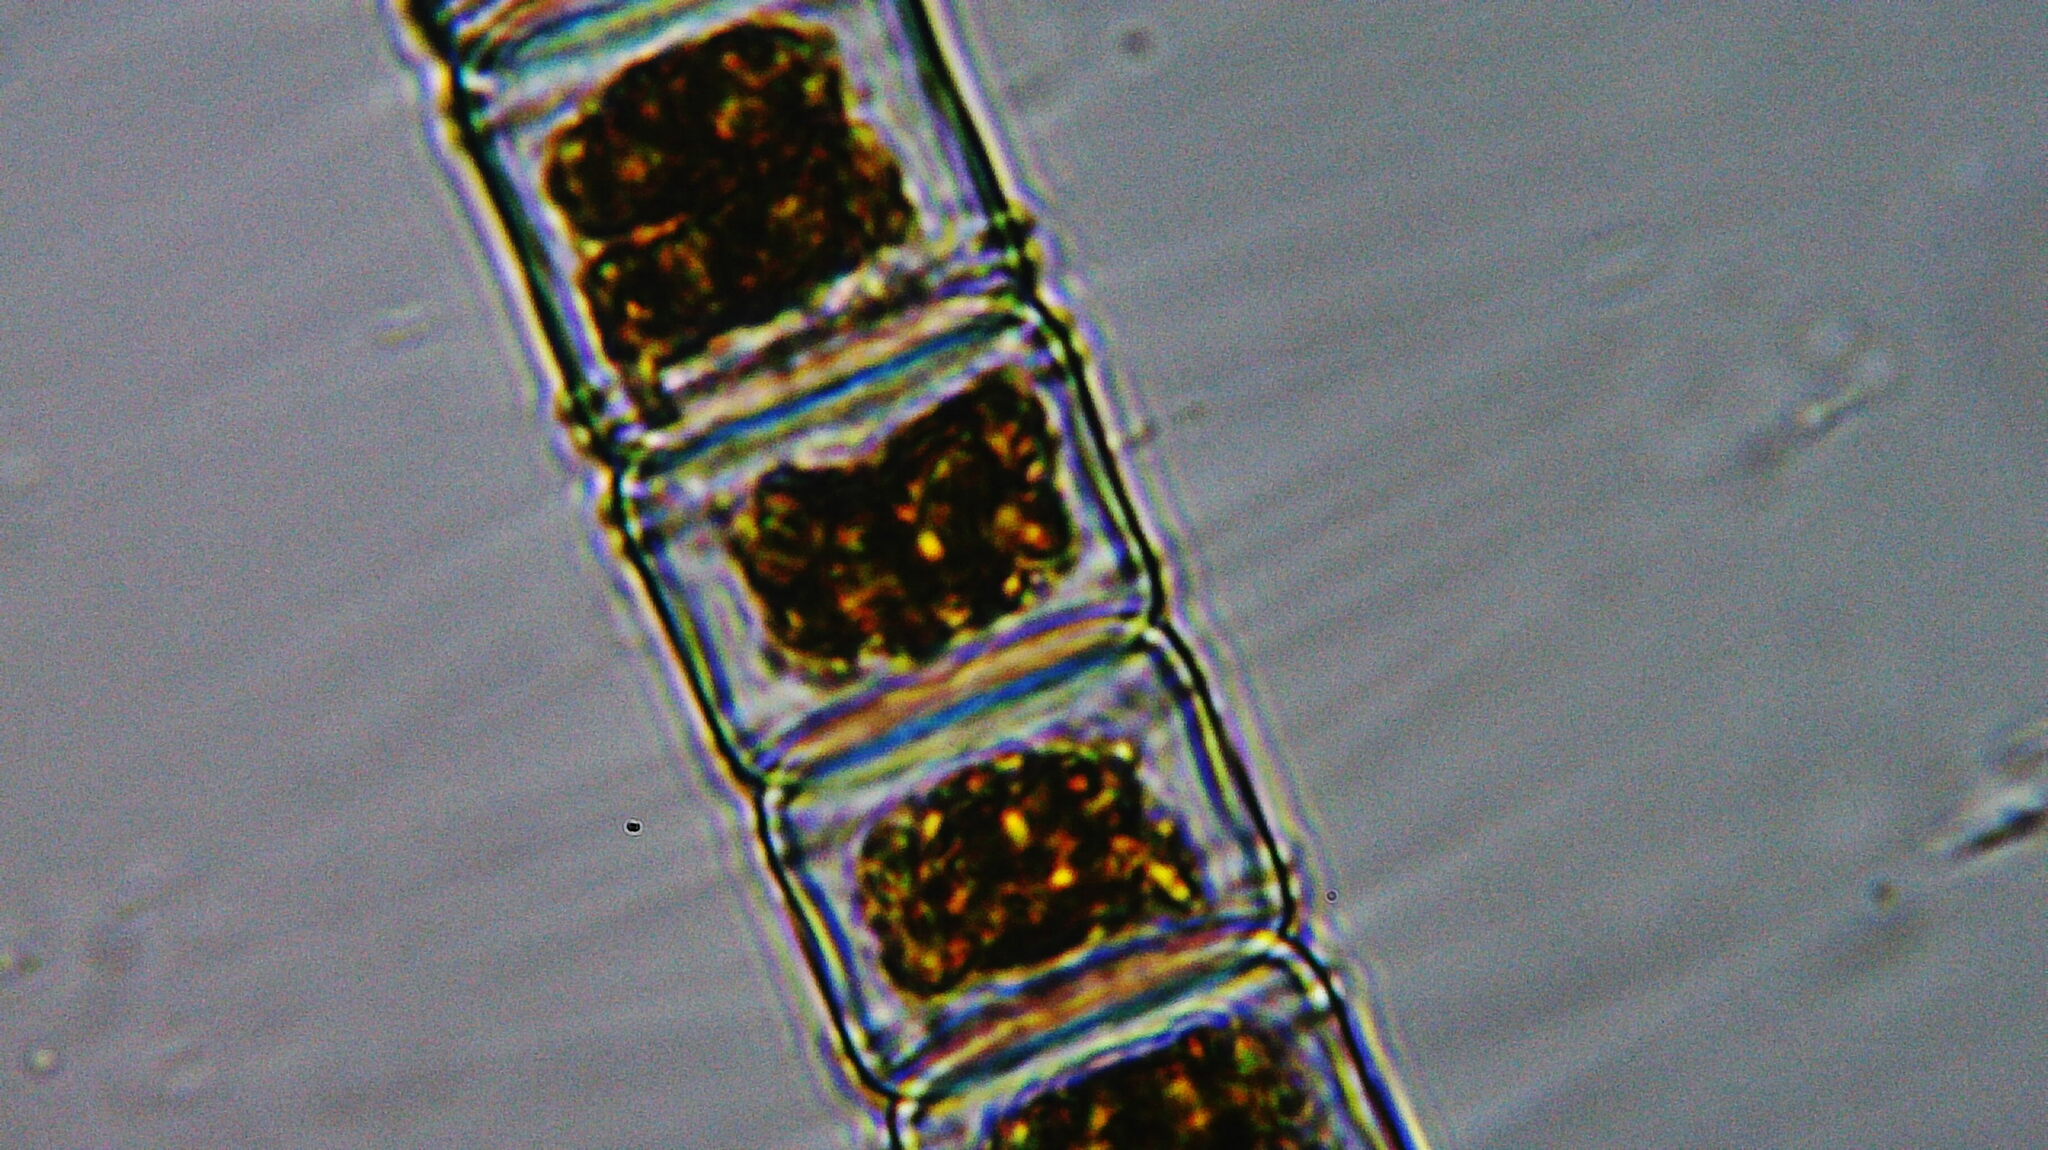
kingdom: Plantae
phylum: Charophyta
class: Conjugatophyceae
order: Desmidiales
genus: Hyalotheca
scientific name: Hyalotheca mucosa
